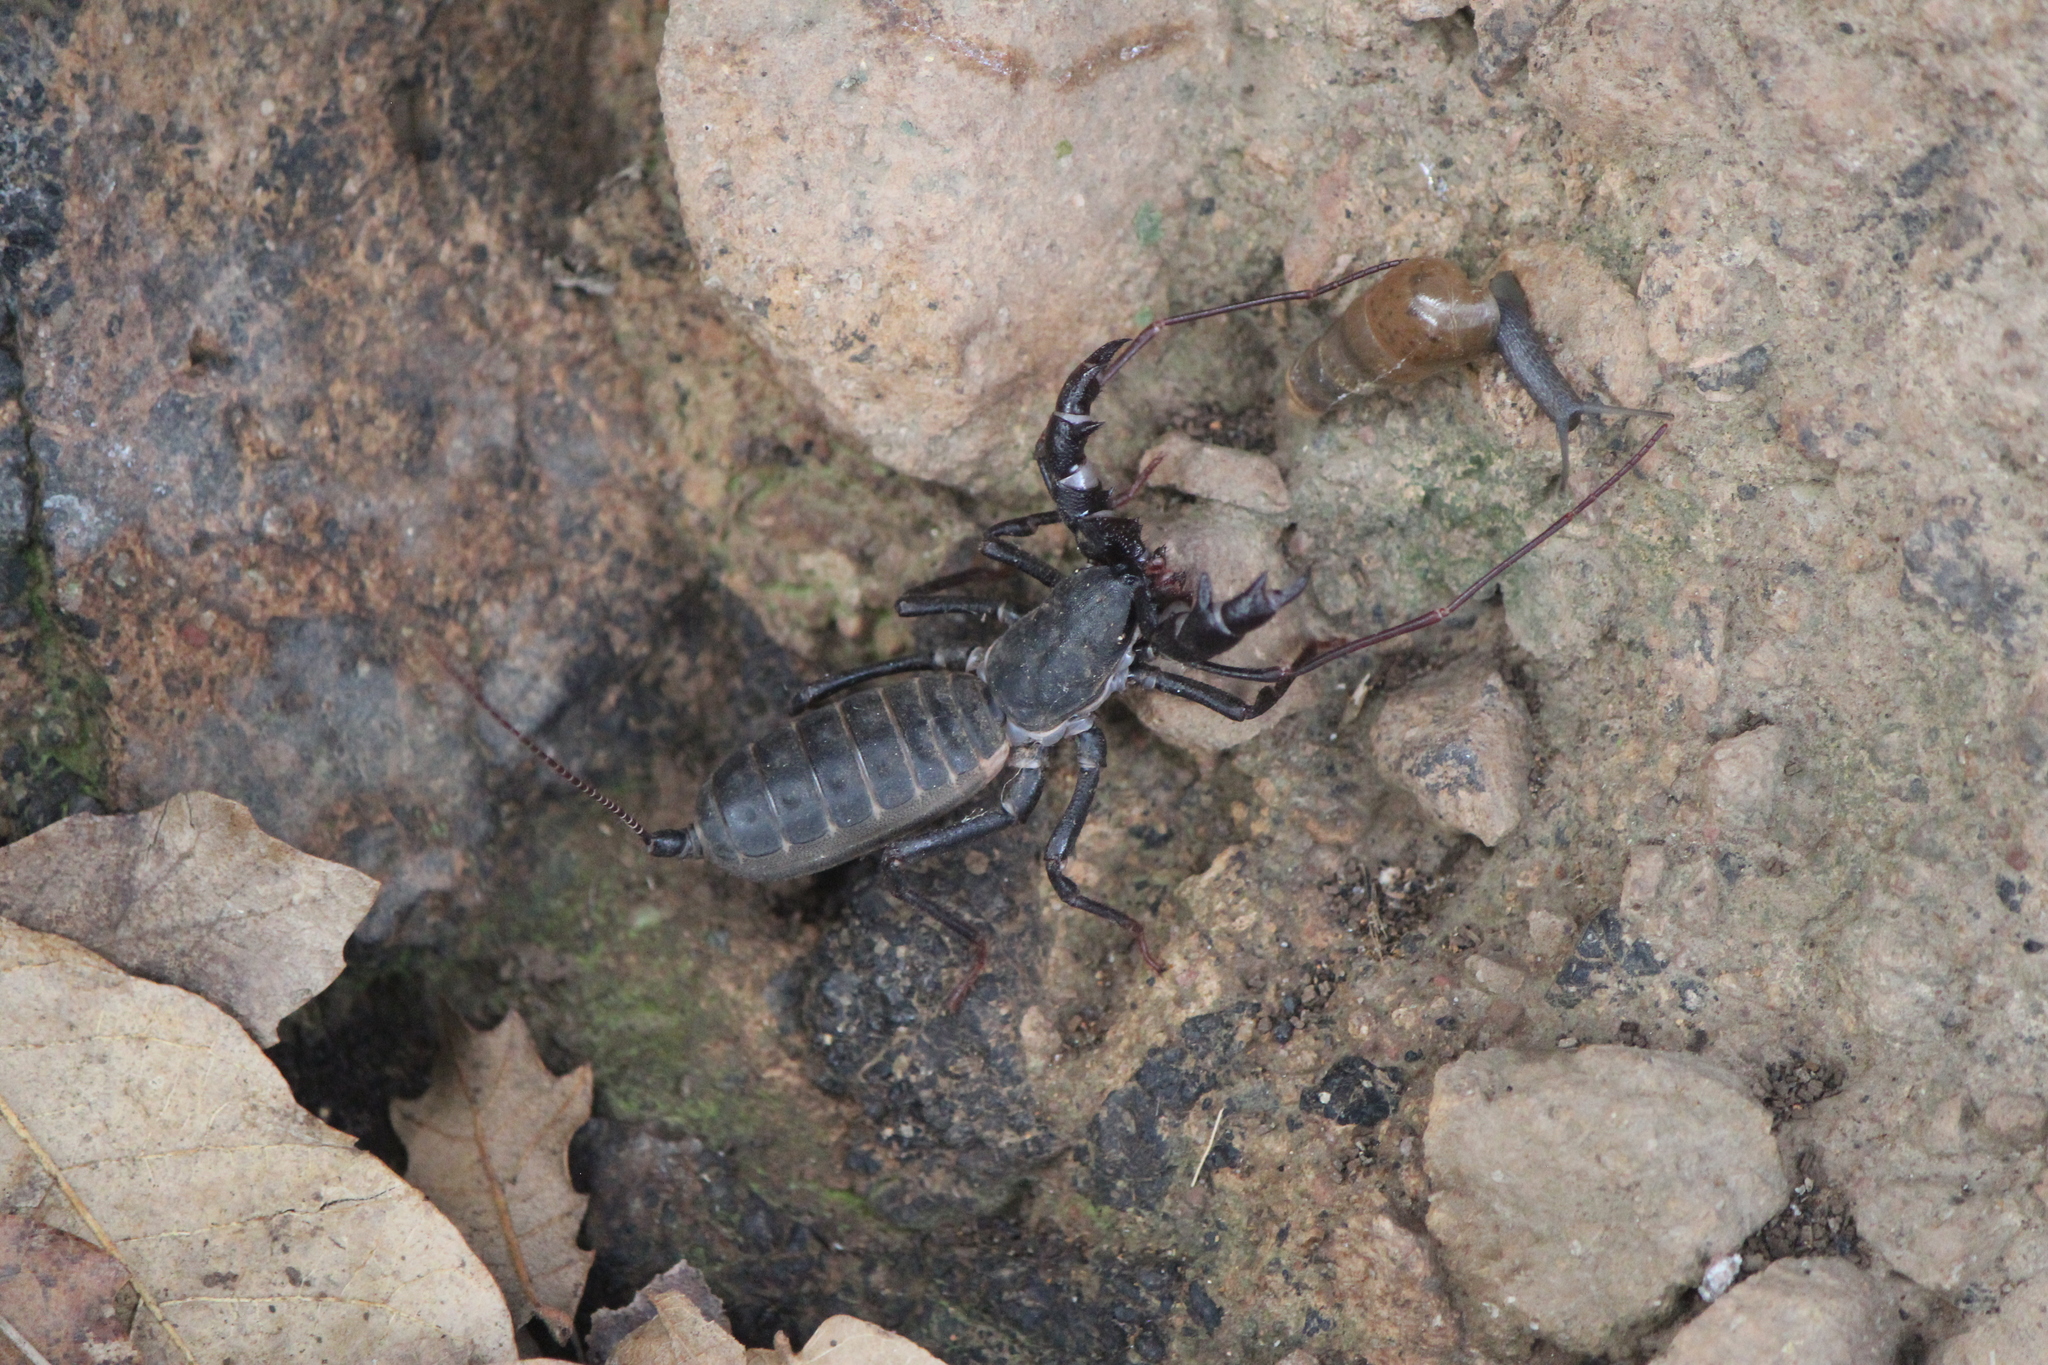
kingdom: Animalia
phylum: Mollusca
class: Gastropoda
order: Stylommatophora
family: Achatinidae
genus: Rumina
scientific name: Rumina decollata
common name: Decollate snail
